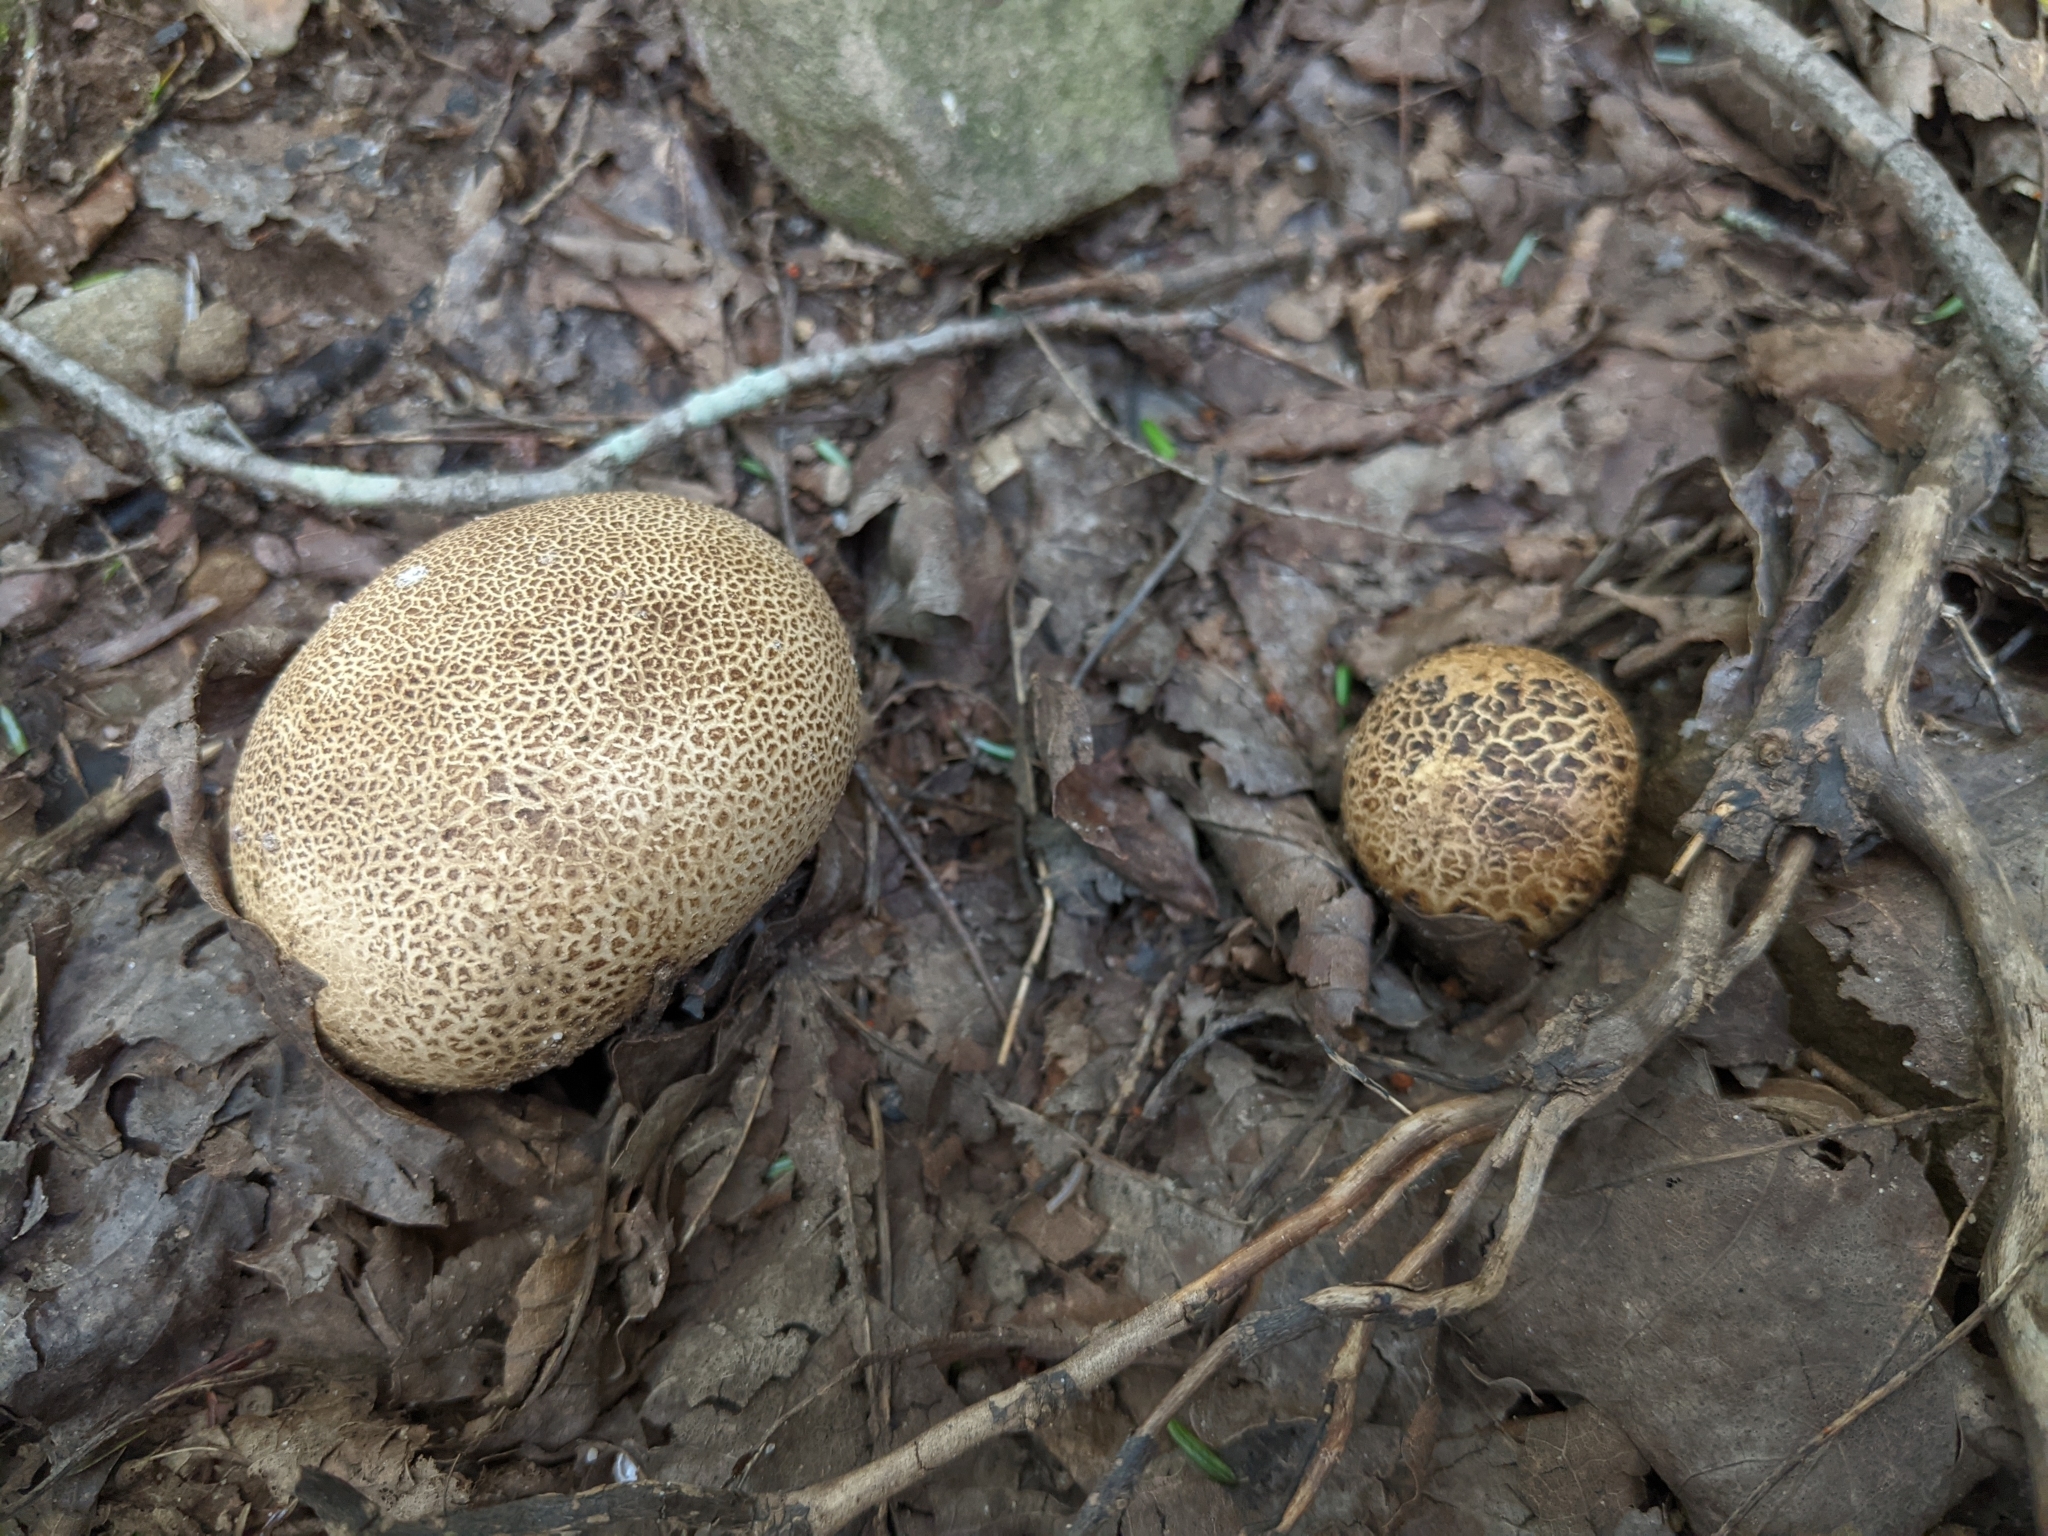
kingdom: Fungi
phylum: Basidiomycota
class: Agaricomycetes
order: Boletales
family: Sclerodermataceae
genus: Scleroderma
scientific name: Scleroderma citrinum
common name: Common earthball
